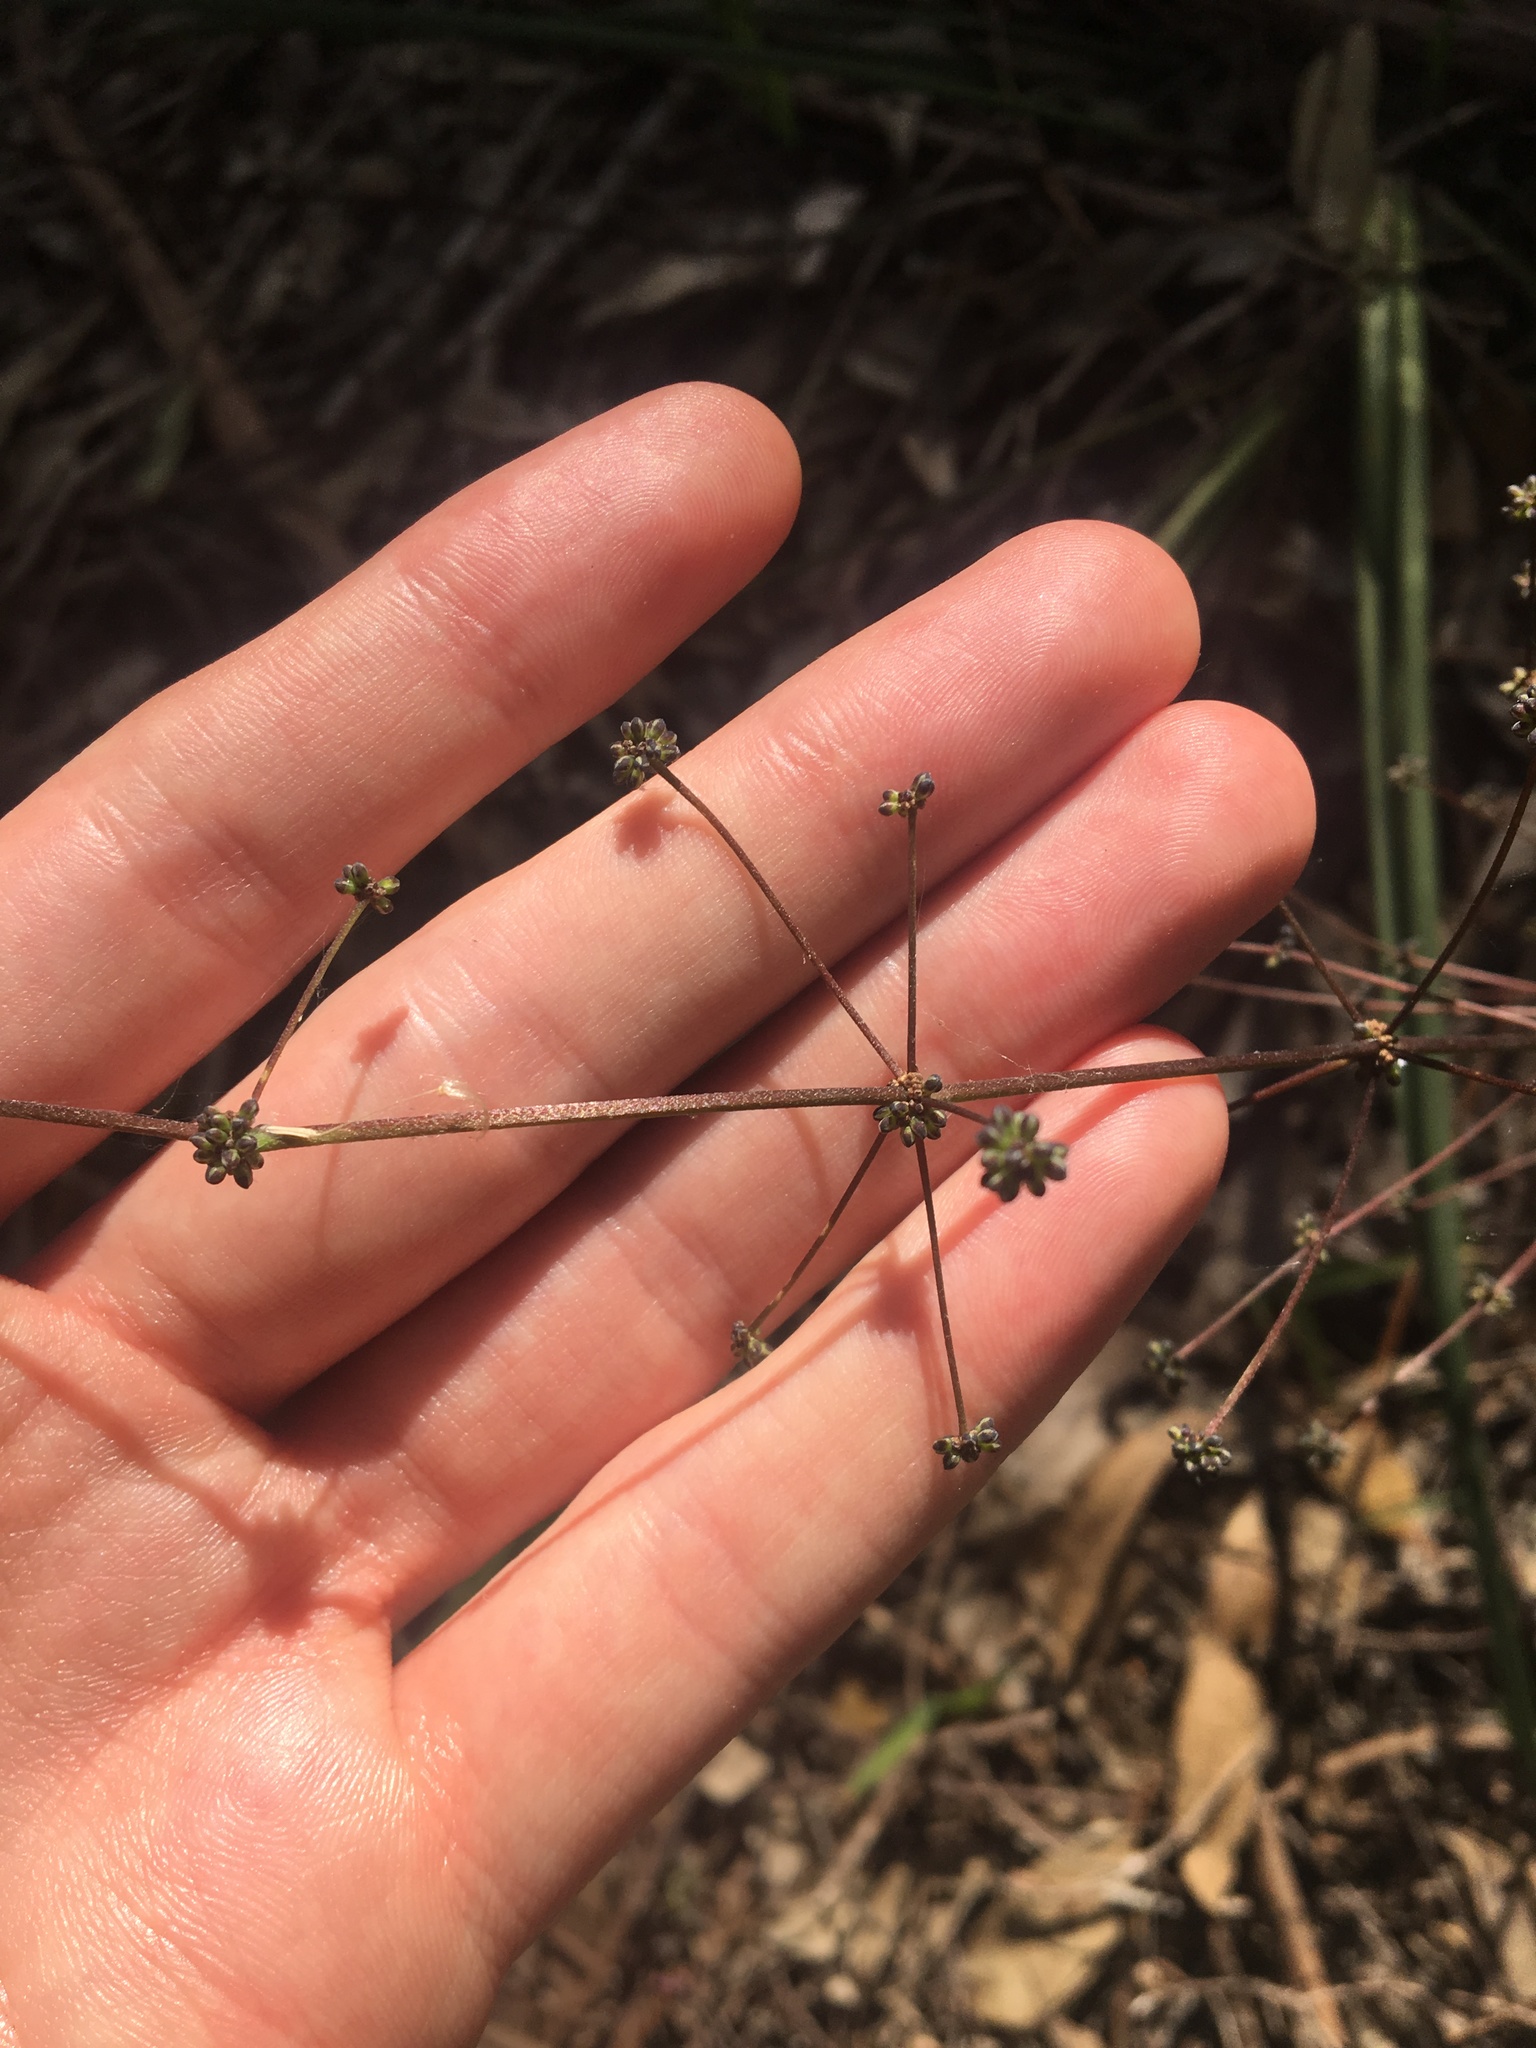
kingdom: Plantae
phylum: Tracheophyta
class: Liliopsida
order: Asparagales
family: Asparagaceae
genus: Lomandra
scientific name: Lomandra multiflora
